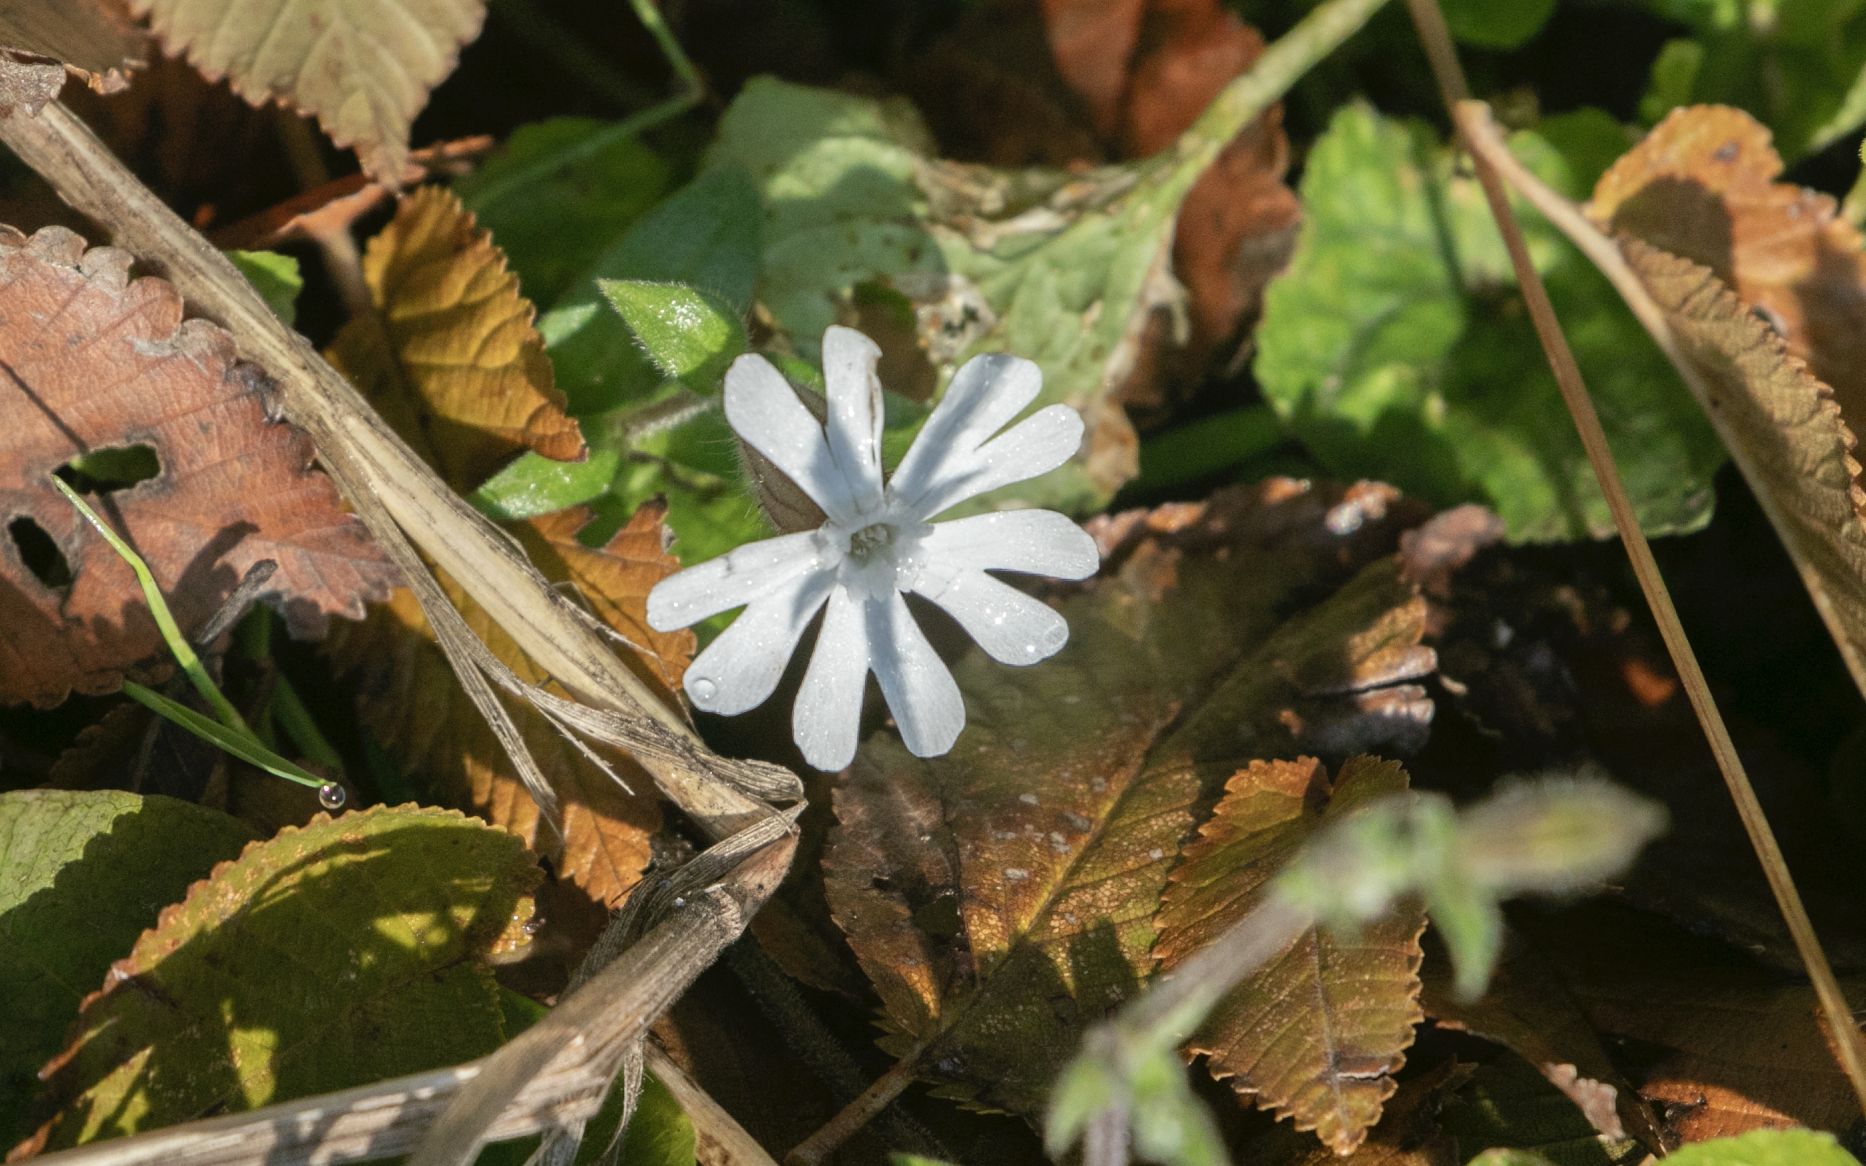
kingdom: Plantae
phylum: Tracheophyta
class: Magnoliopsida
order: Caryophyllales
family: Caryophyllaceae
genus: Silene
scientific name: Silene latifolia
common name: White campion
